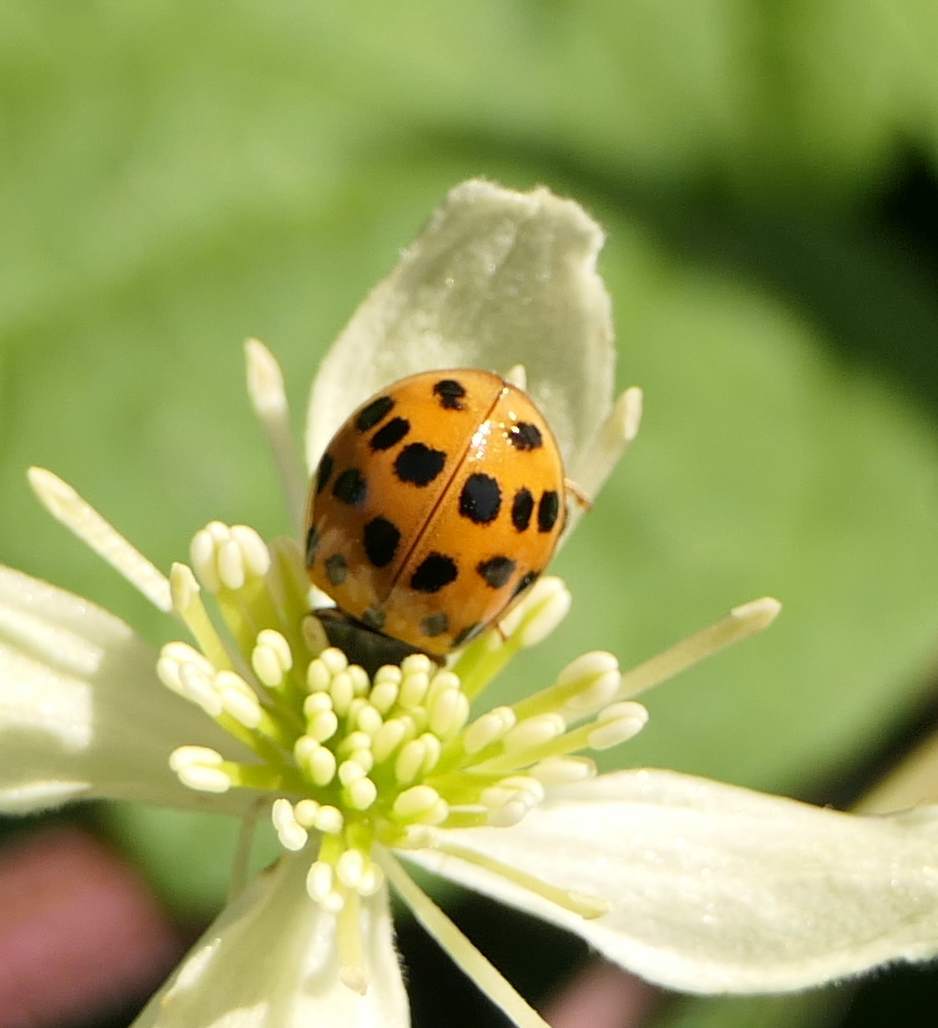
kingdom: Animalia
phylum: Arthropoda
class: Insecta
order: Coleoptera
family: Coccinellidae
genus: Harmonia
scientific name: Harmonia axyridis
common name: Harlequin ladybird
